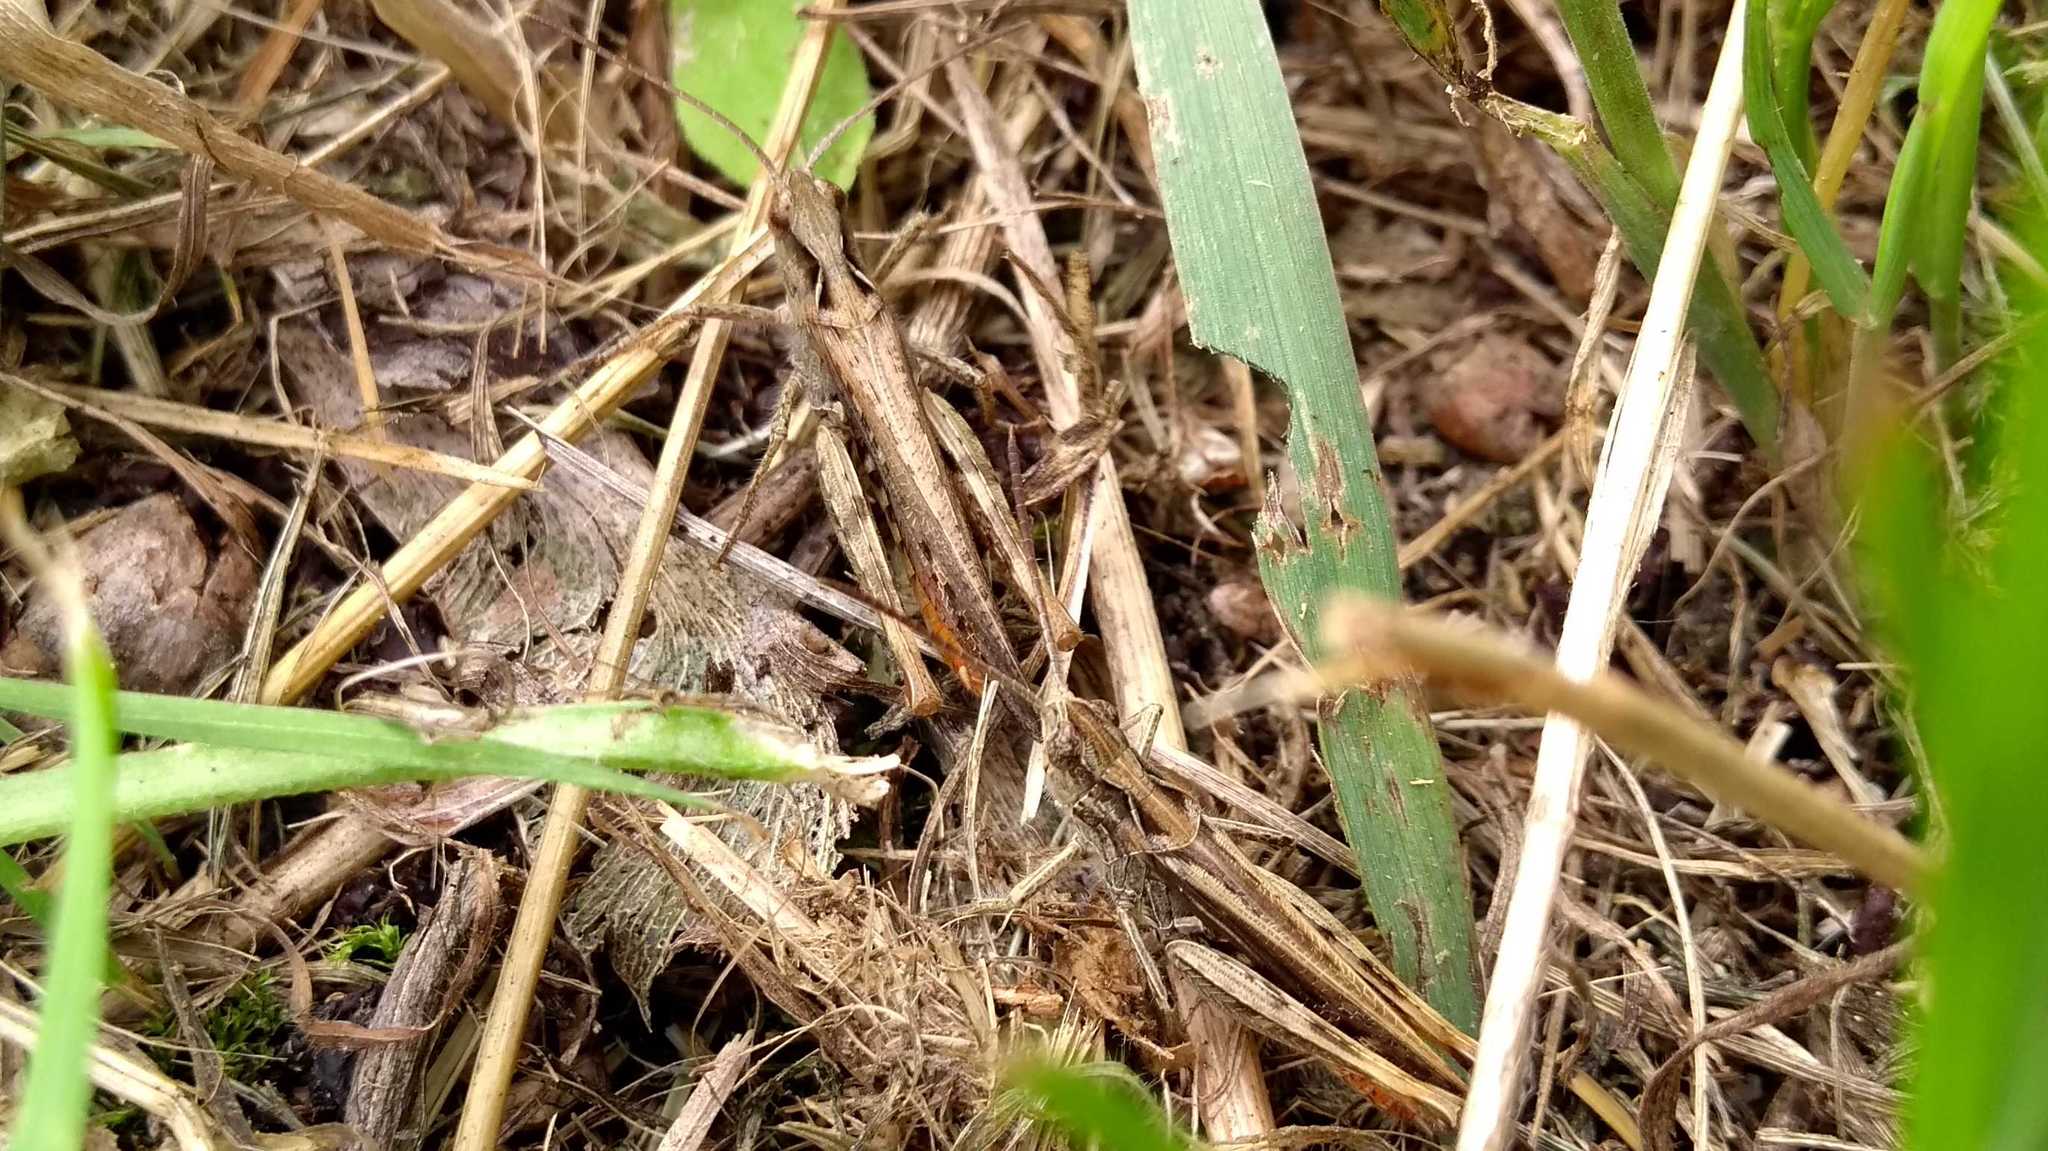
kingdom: Animalia
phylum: Arthropoda
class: Insecta
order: Orthoptera
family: Acrididae
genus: Glyptobothrus
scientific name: Glyptobothrus
